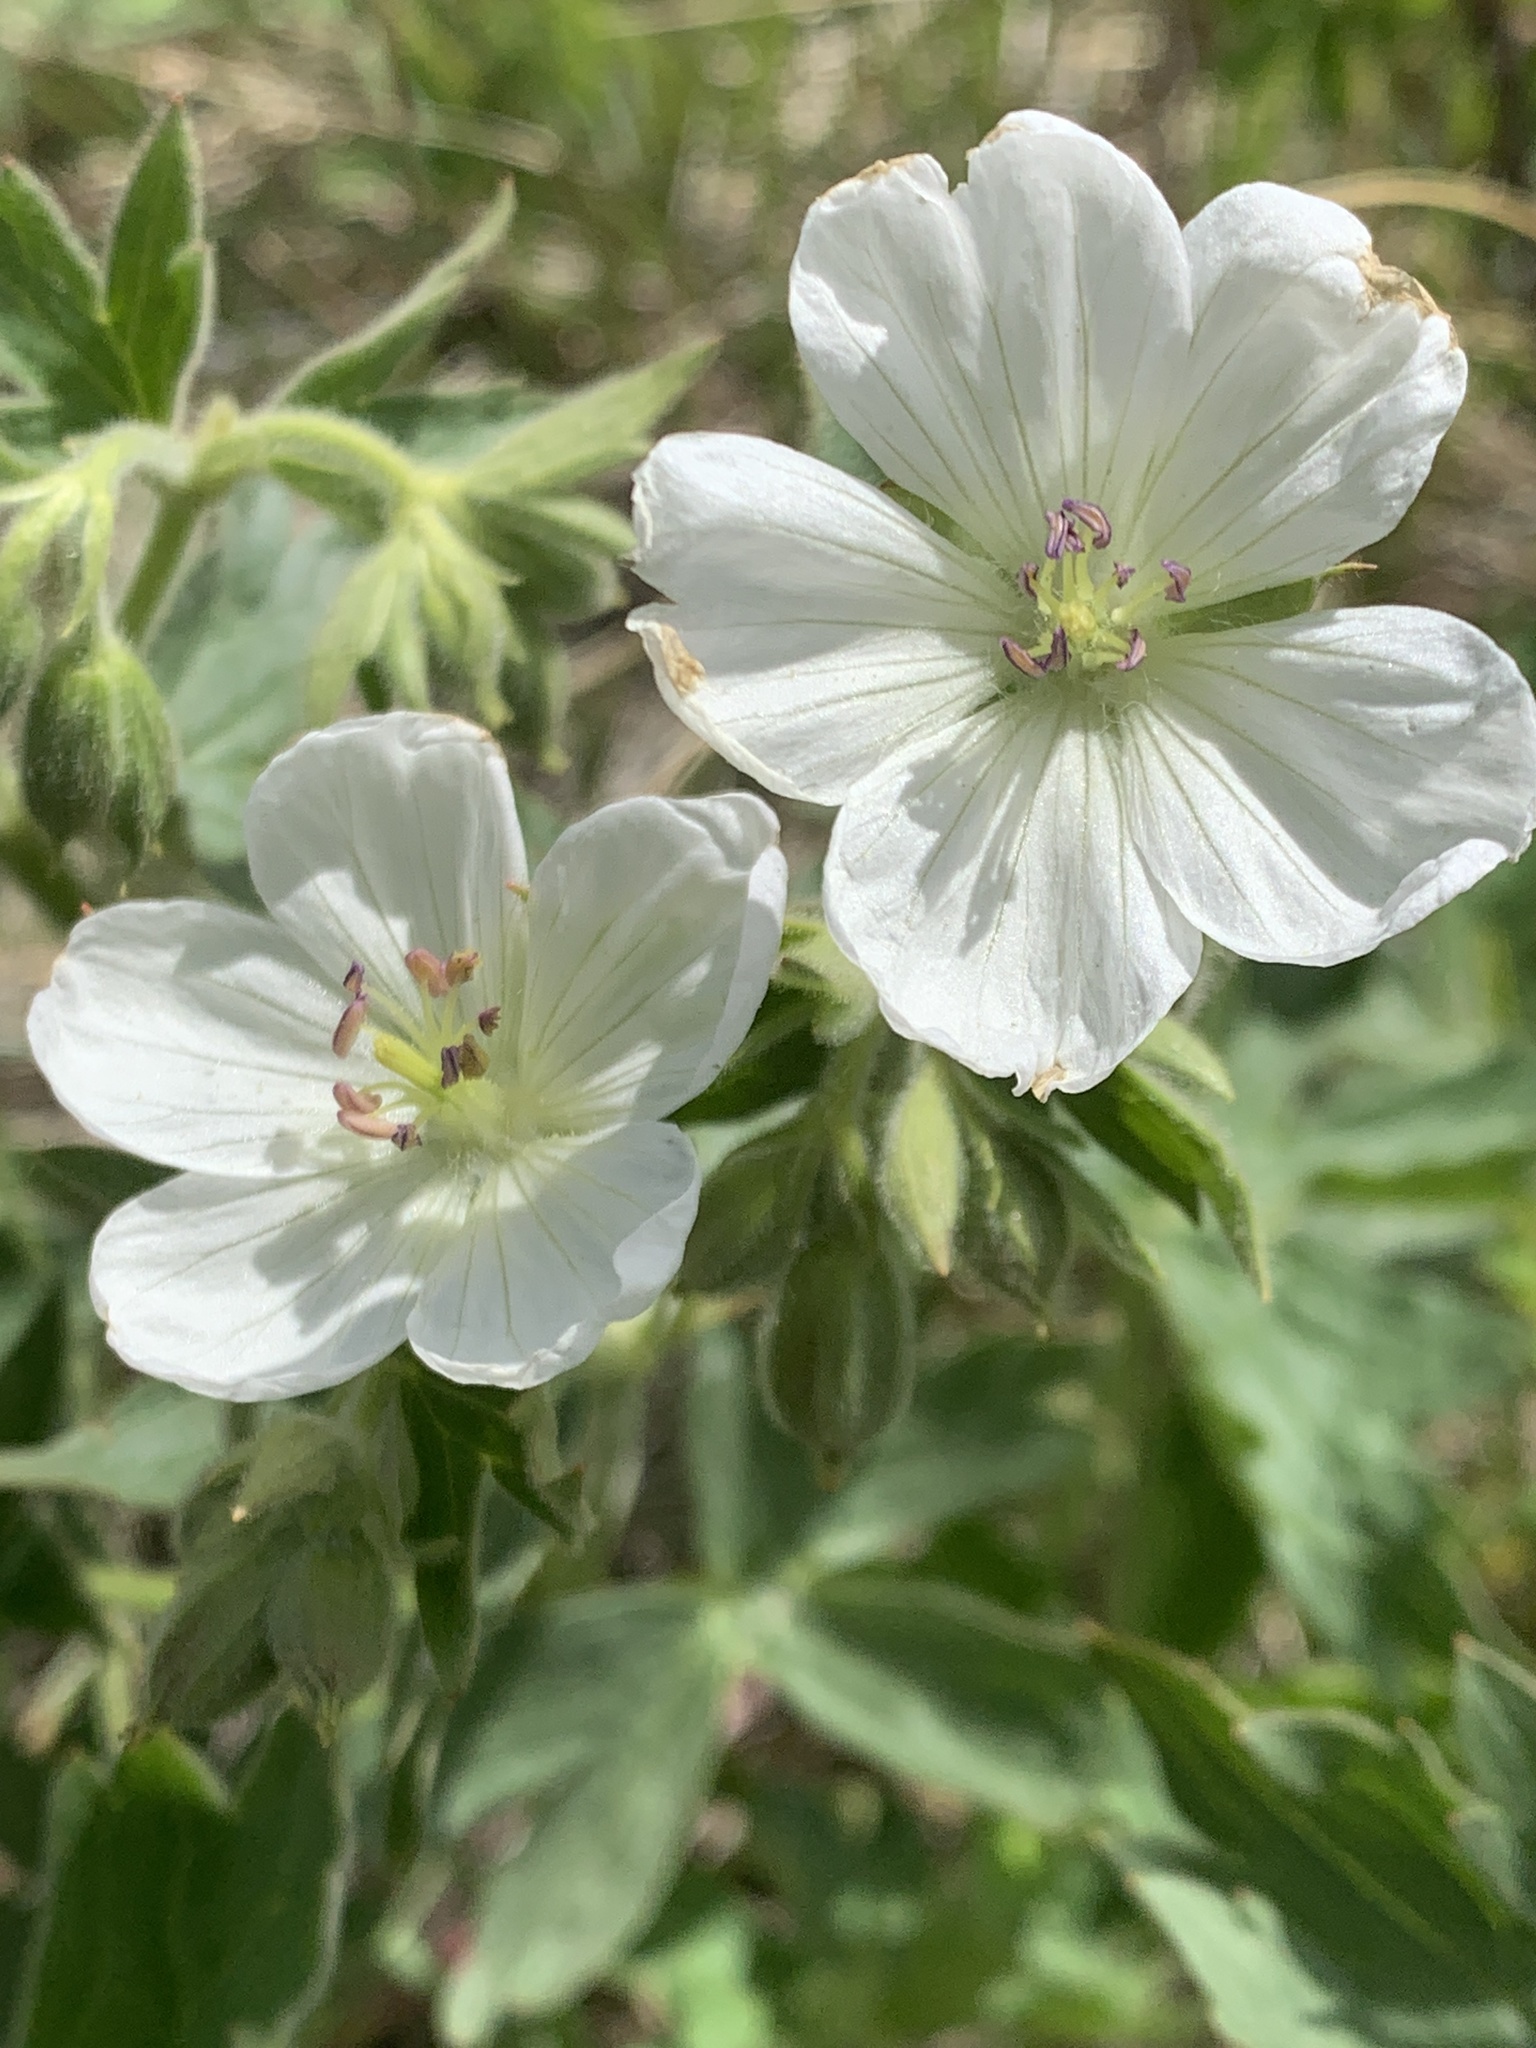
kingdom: Plantae
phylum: Tracheophyta
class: Magnoliopsida
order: Geraniales
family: Geraniaceae
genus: Geranium
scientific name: Geranium richardsonii
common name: Richardson's crane's-bill
